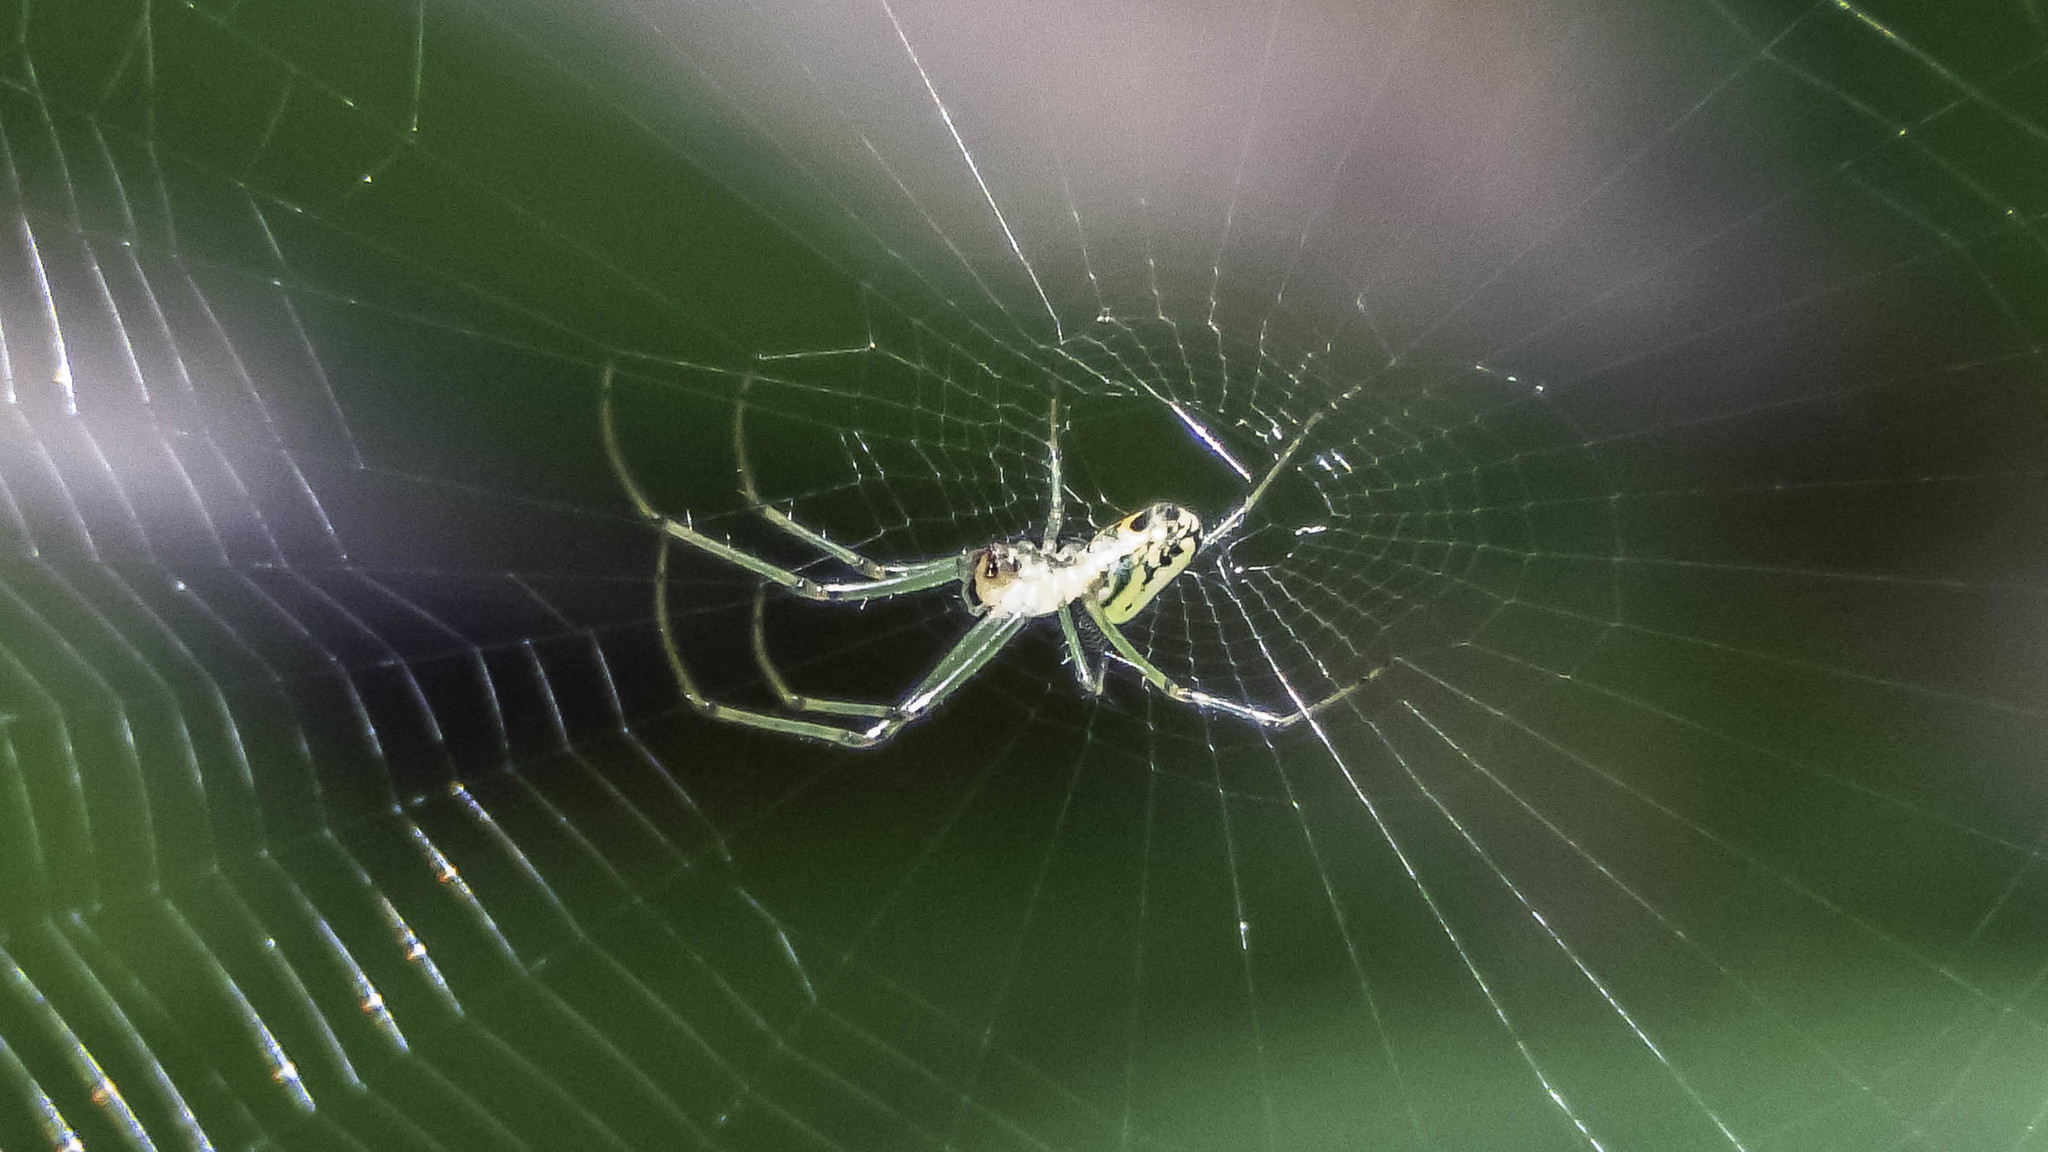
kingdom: Animalia
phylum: Arthropoda
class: Arachnida
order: Araneae
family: Tetragnathidae
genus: Leucauge
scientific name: Leucauge venusta
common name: Longjawed orb weavers
